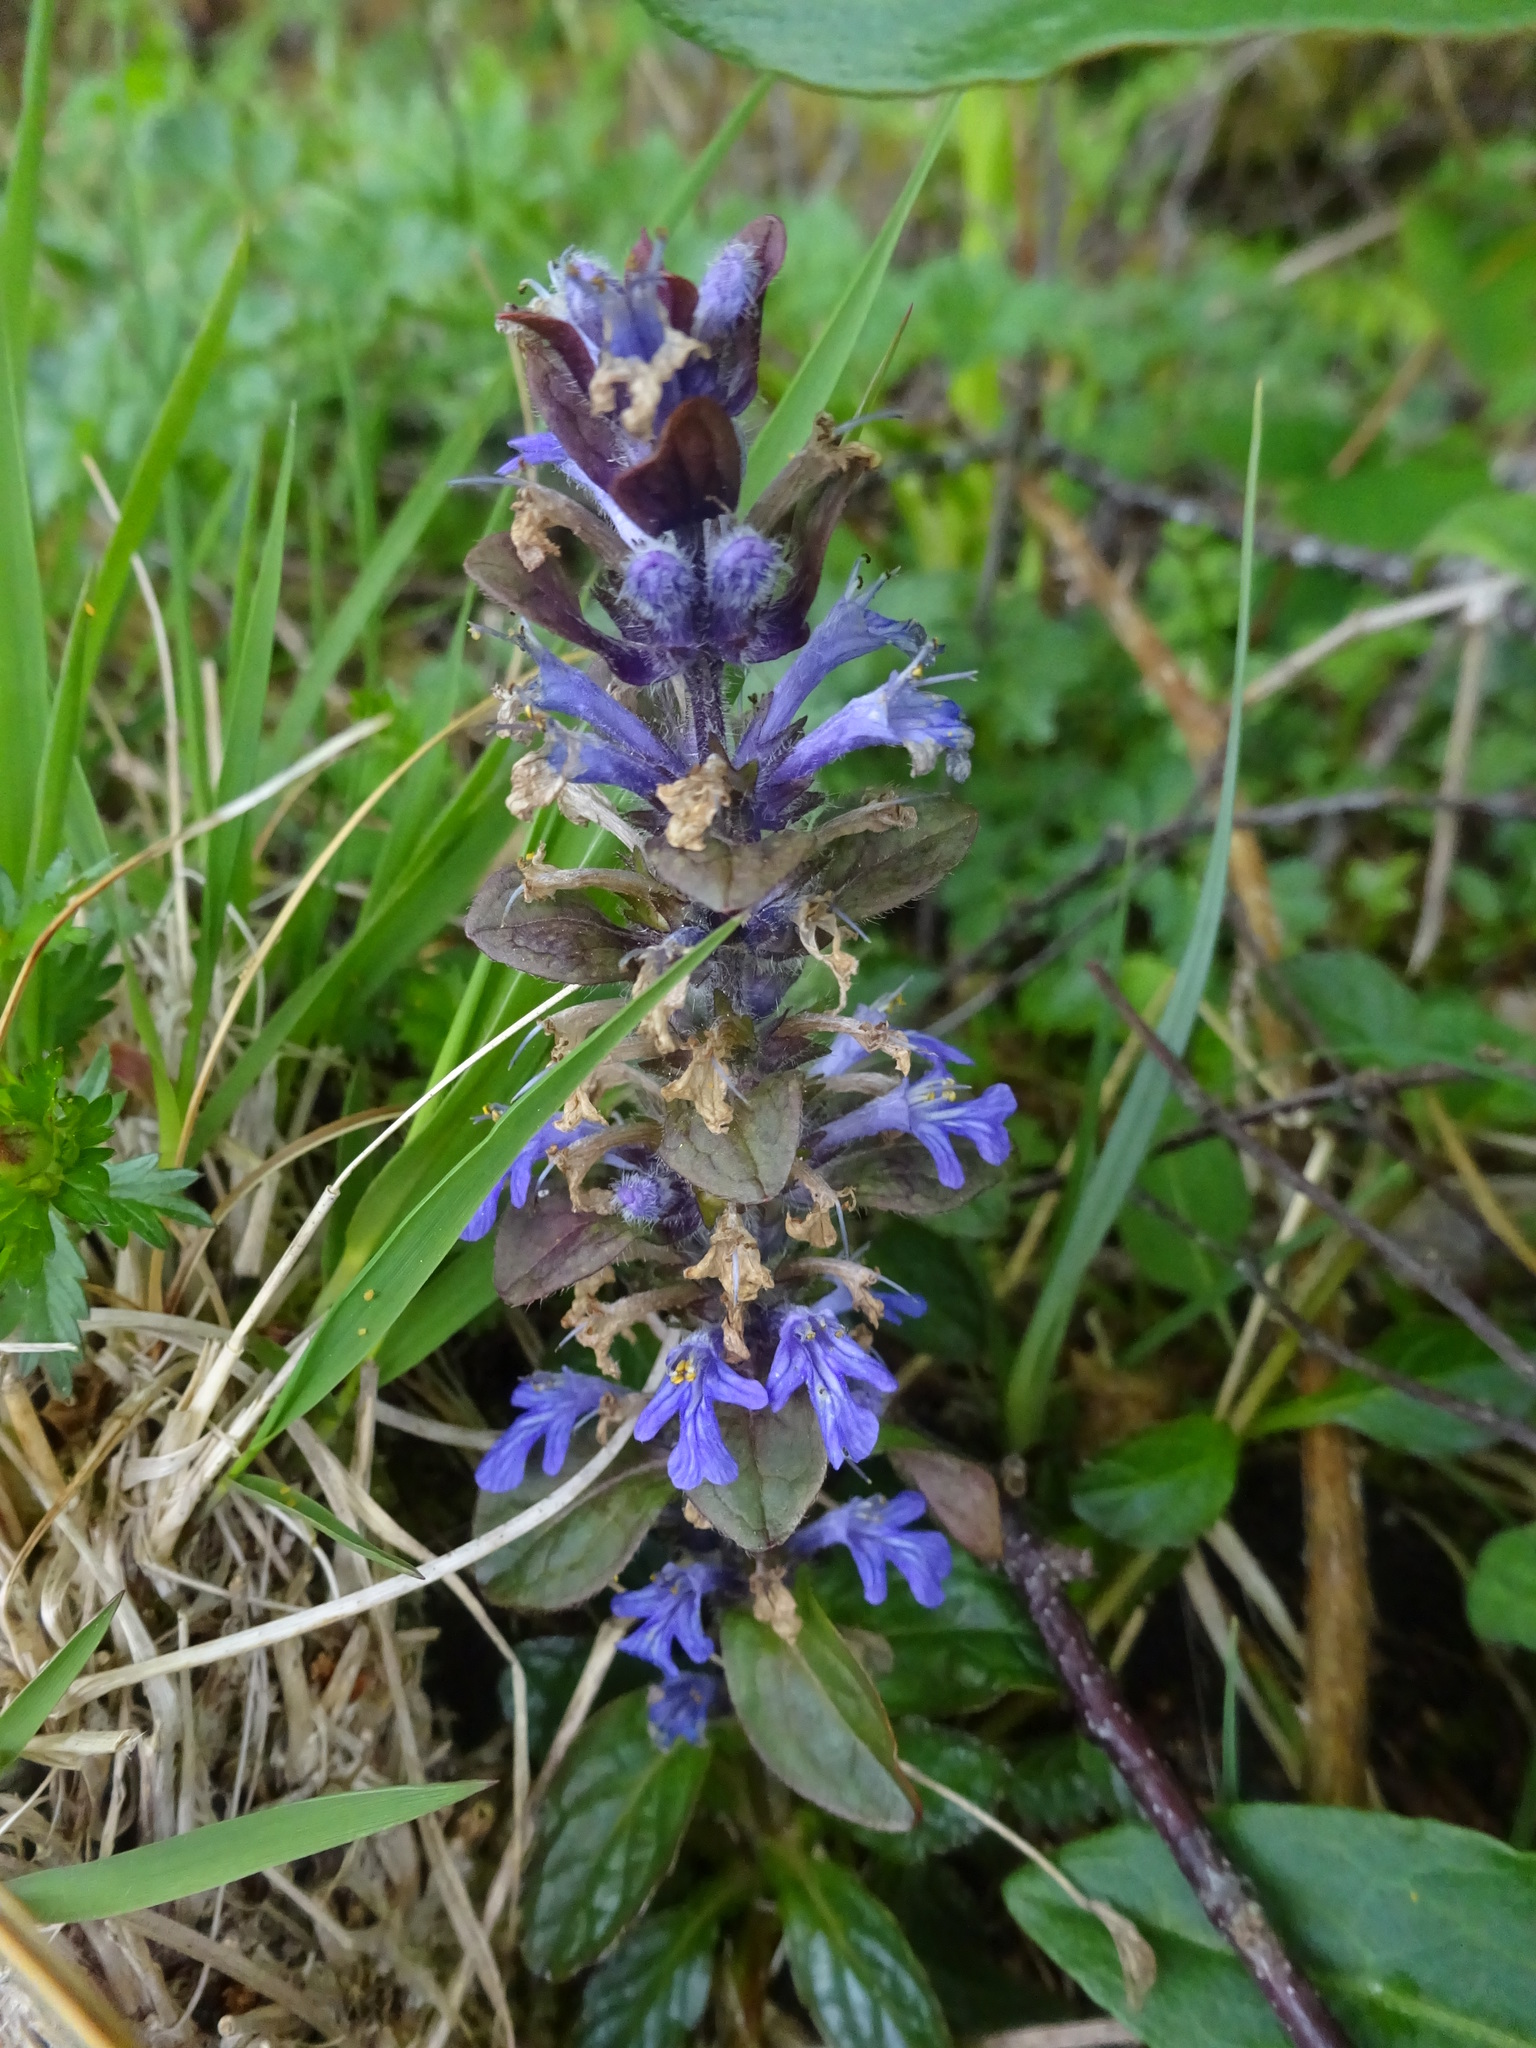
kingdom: Plantae
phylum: Tracheophyta
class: Magnoliopsida
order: Lamiales
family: Lamiaceae
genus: Ajuga
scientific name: Ajuga reptans
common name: Bugle
